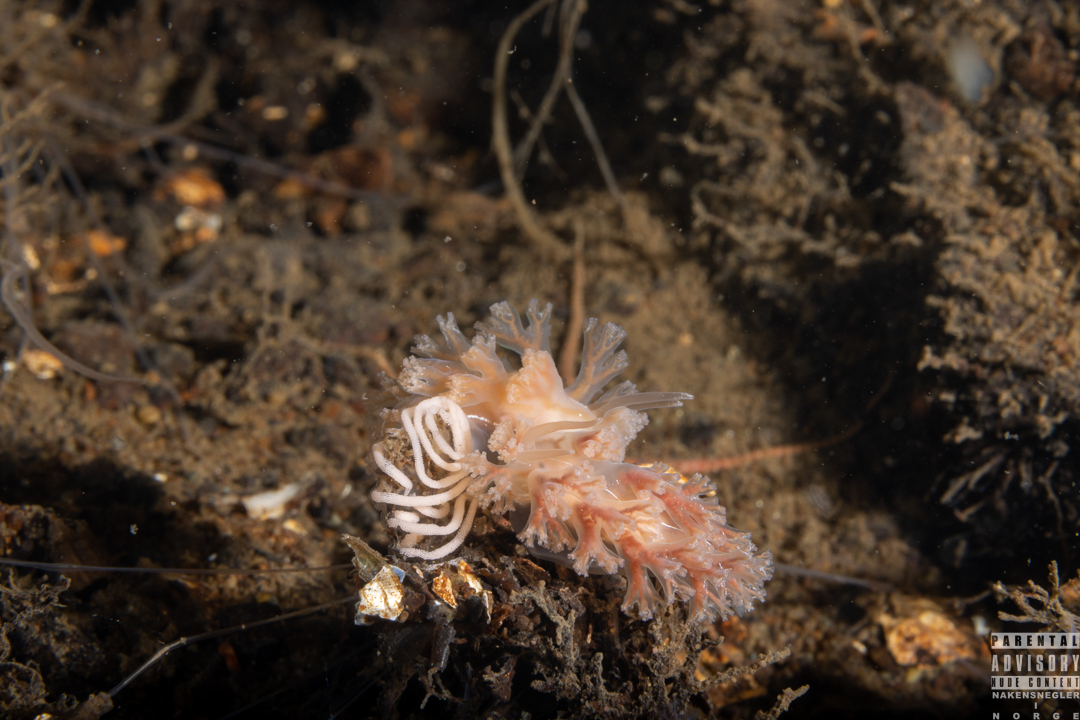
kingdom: Animalia
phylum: Mollusca
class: Gastropoda
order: Nudibranchia
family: Heroidae
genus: Hero
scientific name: Hero formosa
